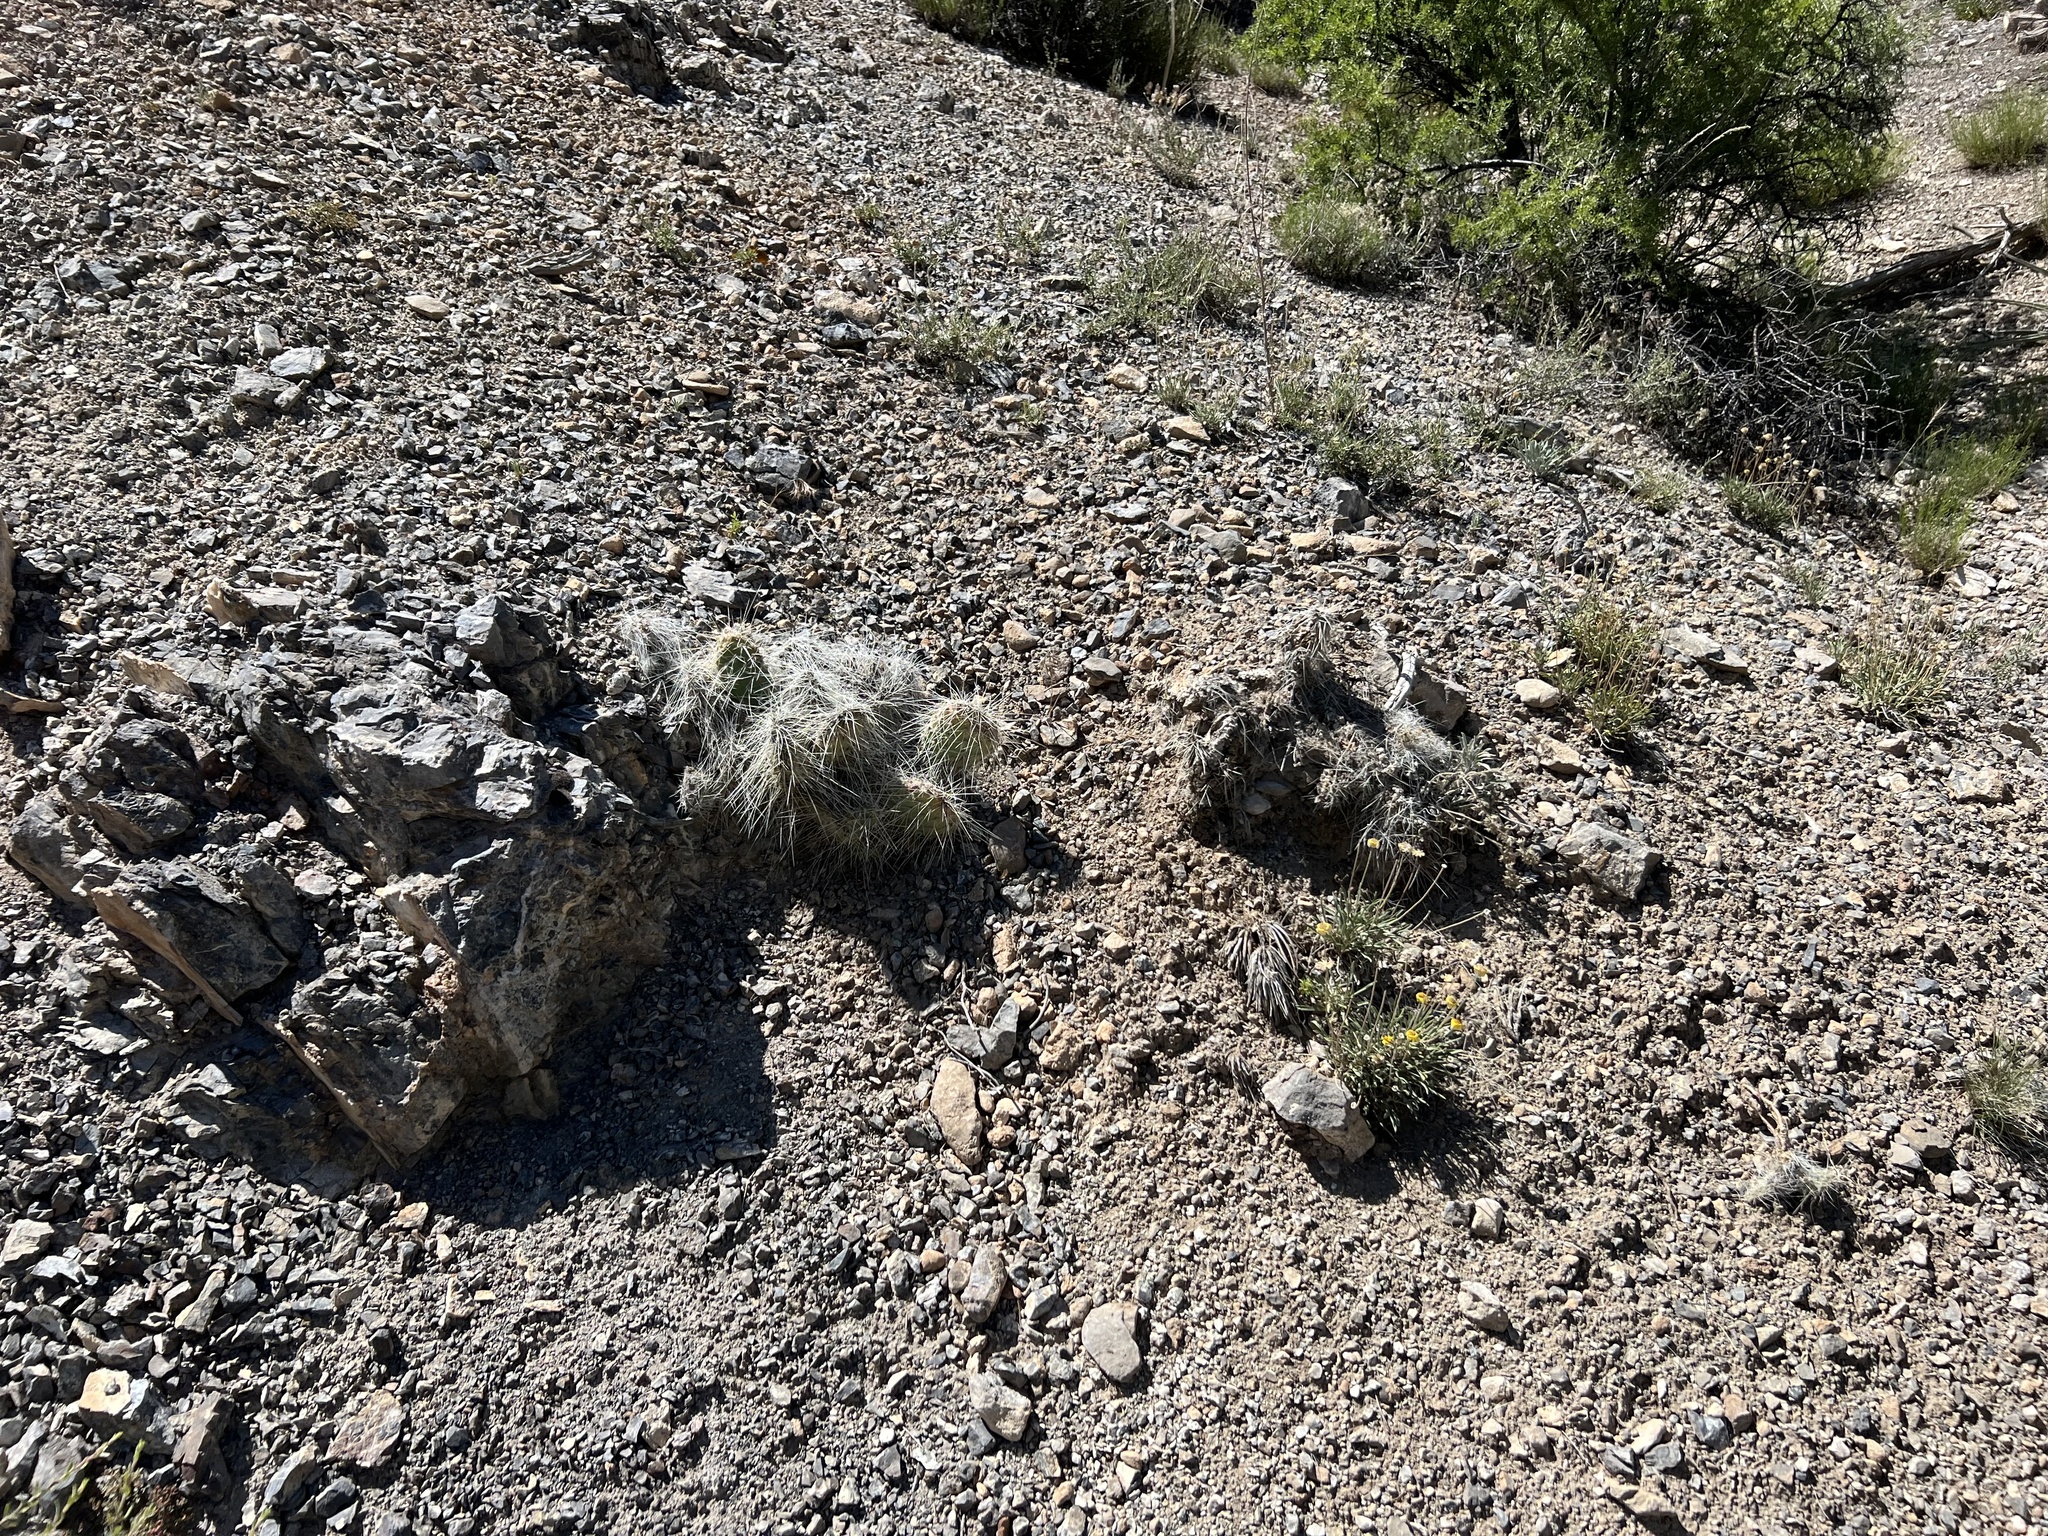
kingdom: Plantae
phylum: Tracheophyta
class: Magnoliopsida
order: Caryophyllales
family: Cactaceae
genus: Opuntia
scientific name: Opuntia polyacantha
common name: Plains prickly-pear
